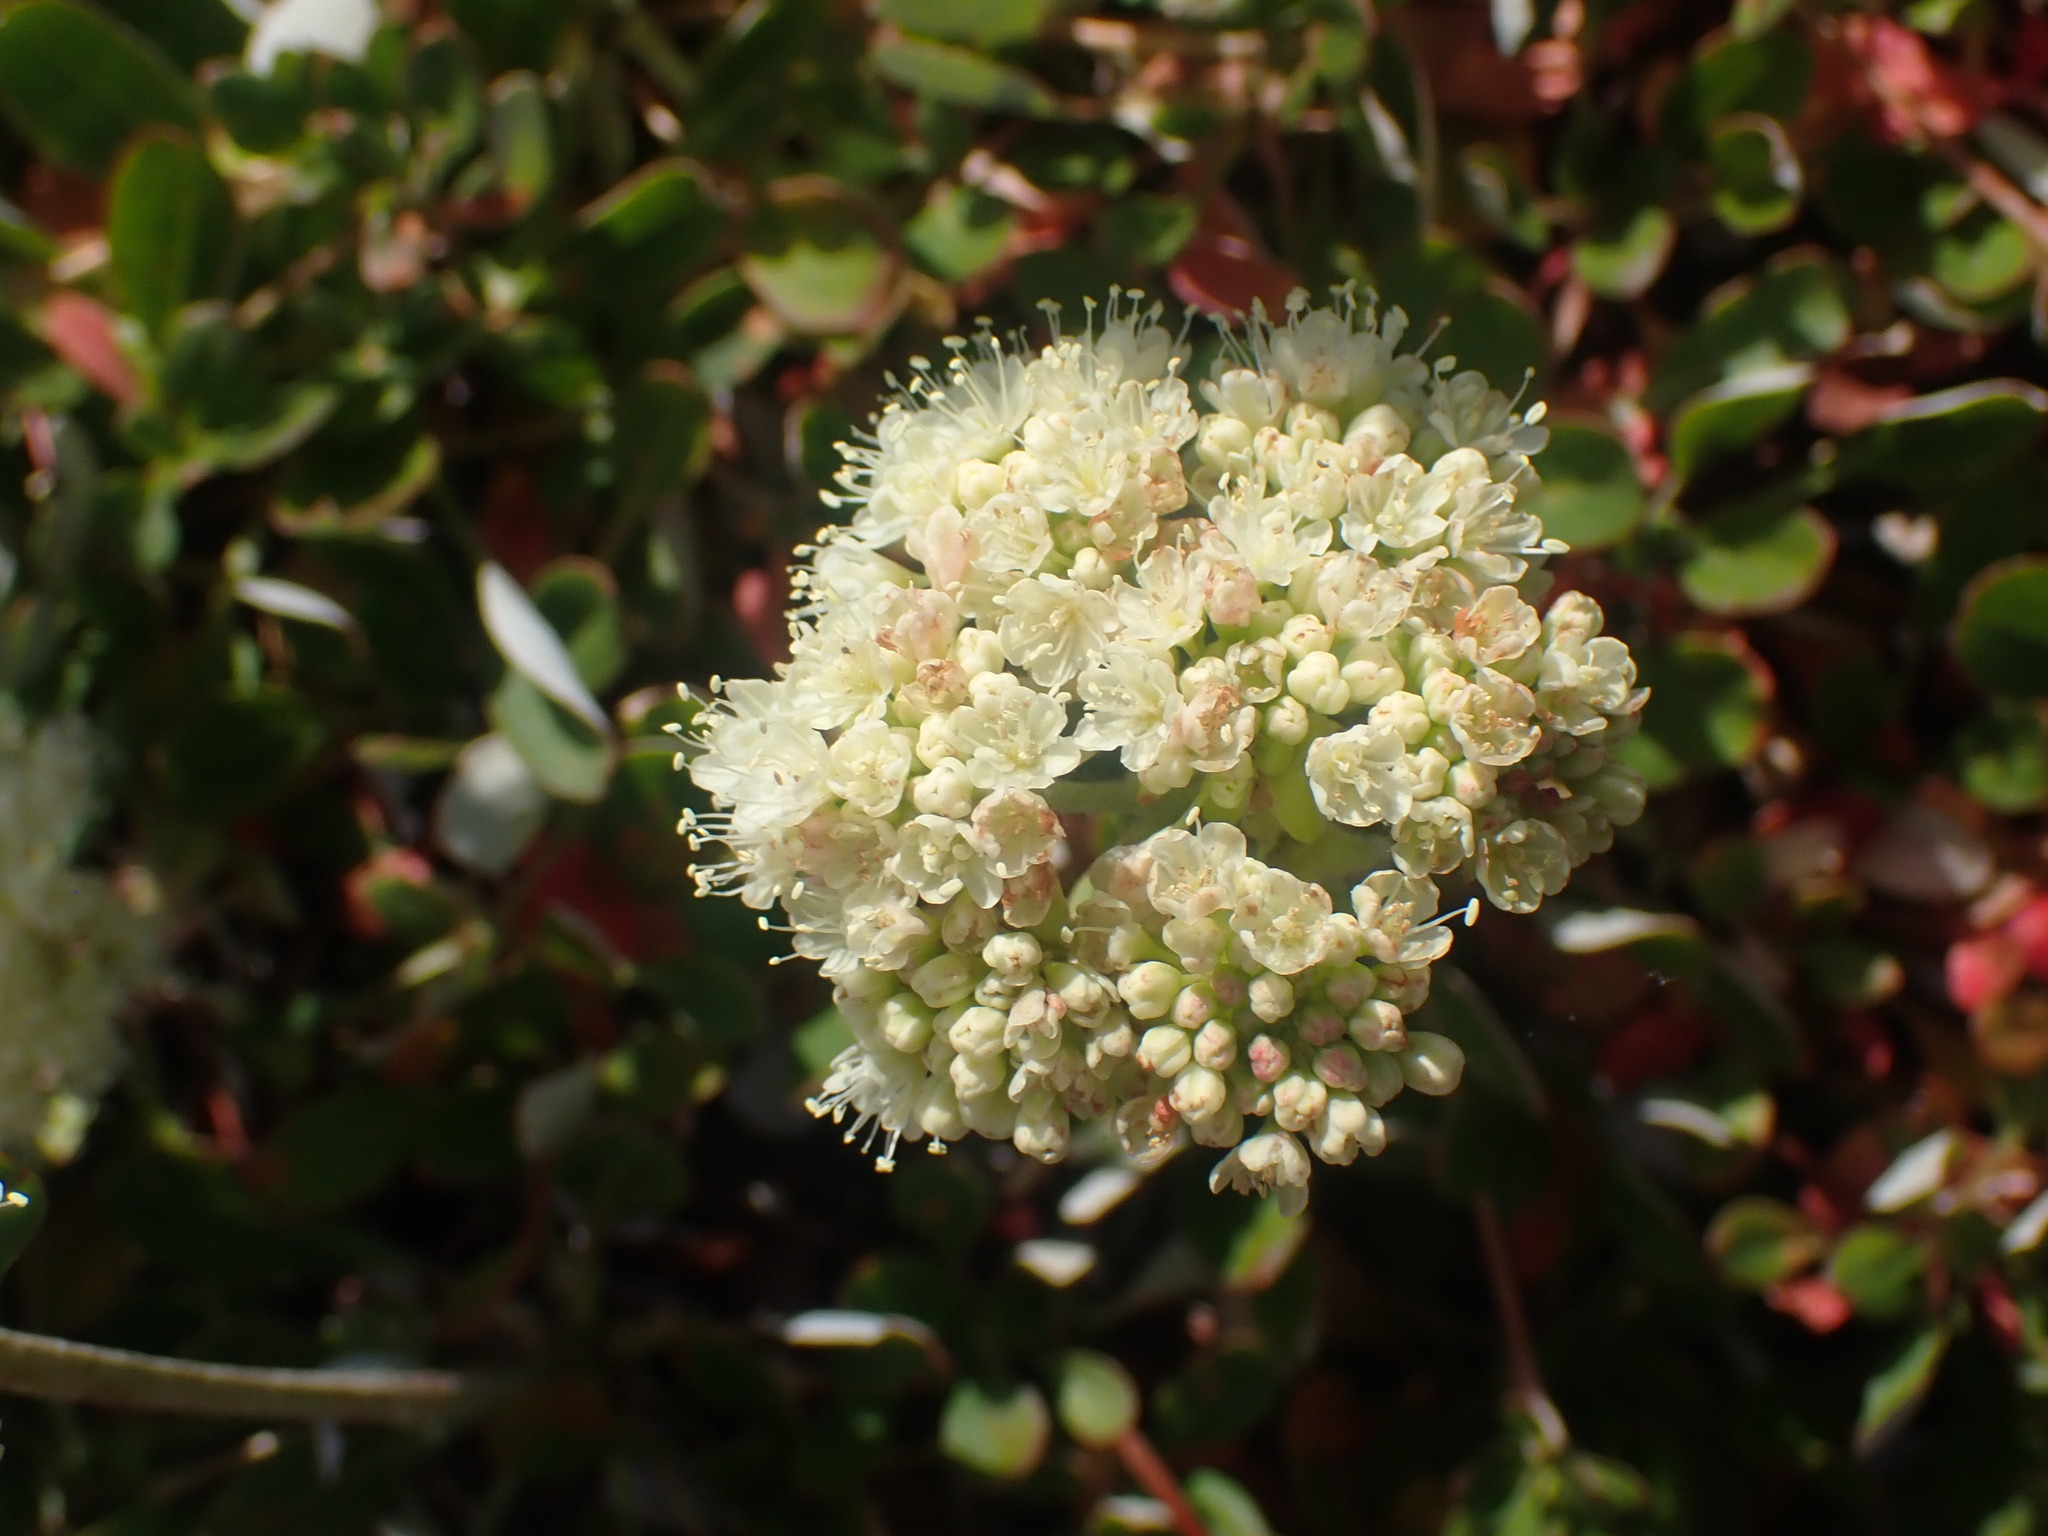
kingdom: Plantae
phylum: Tracheophyta
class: Magnoliopsida
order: Caryophyllales
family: Polygonaceae
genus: Eriogonum
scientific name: Eriogonum umbellatum
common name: Sulfur-buckwheat
